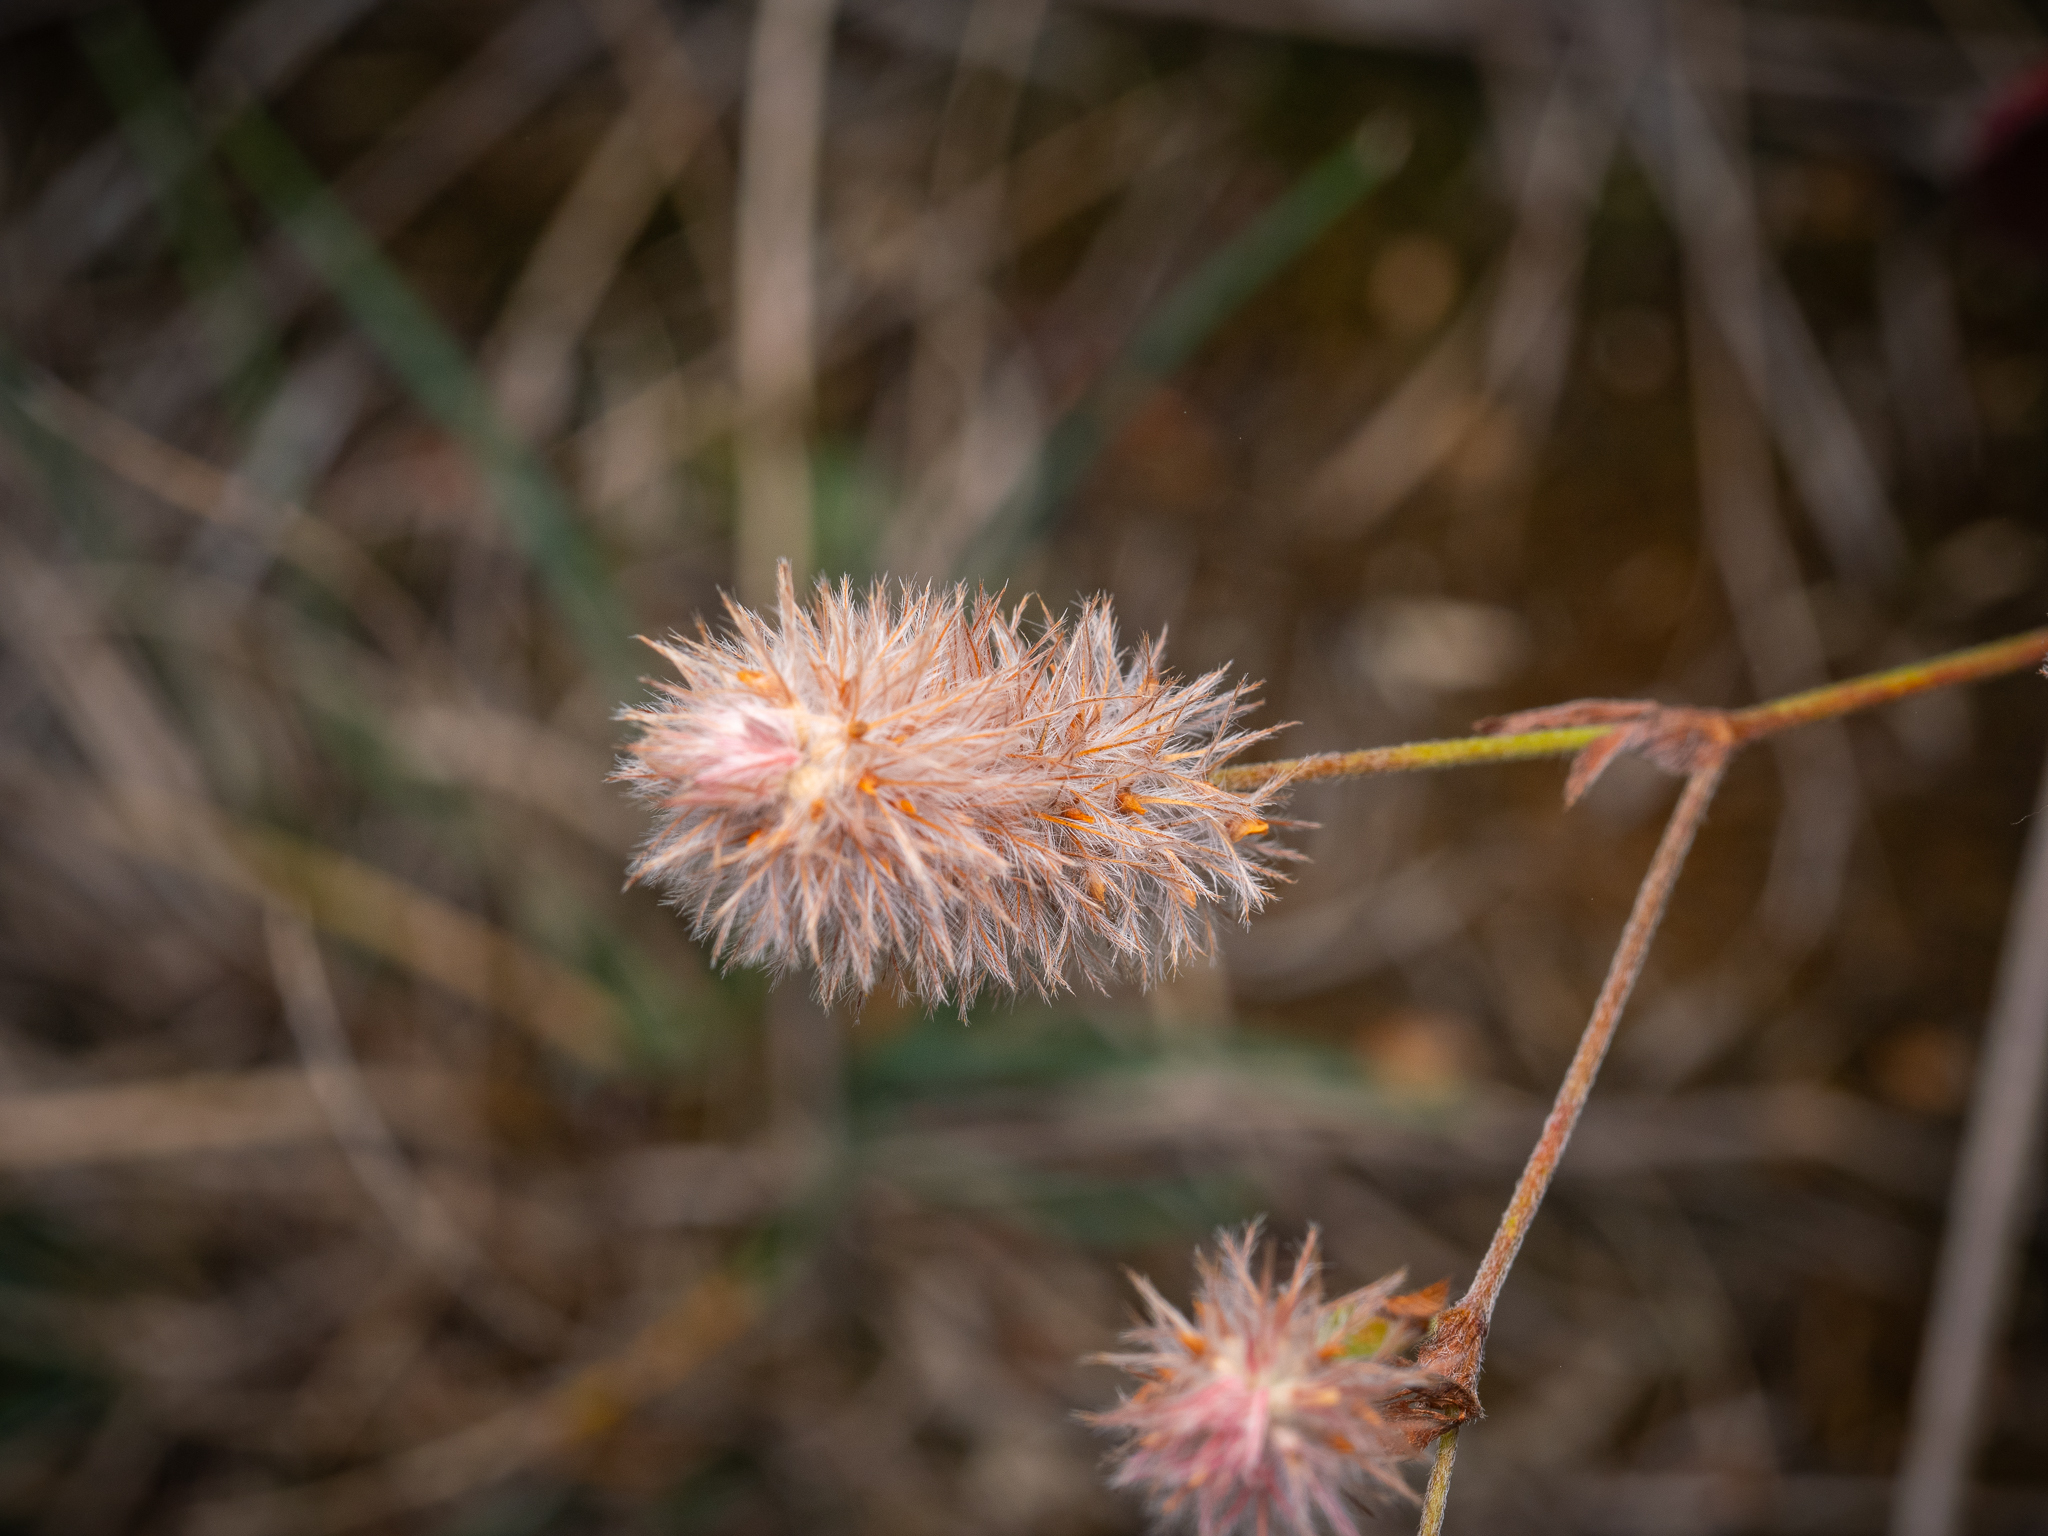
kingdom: Plantae
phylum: Tracheophyta
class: Magnoliopsida
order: Fabales
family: Fabaceae
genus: Trifolium
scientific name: Trifolium arvense
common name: Hare's-foot clover
